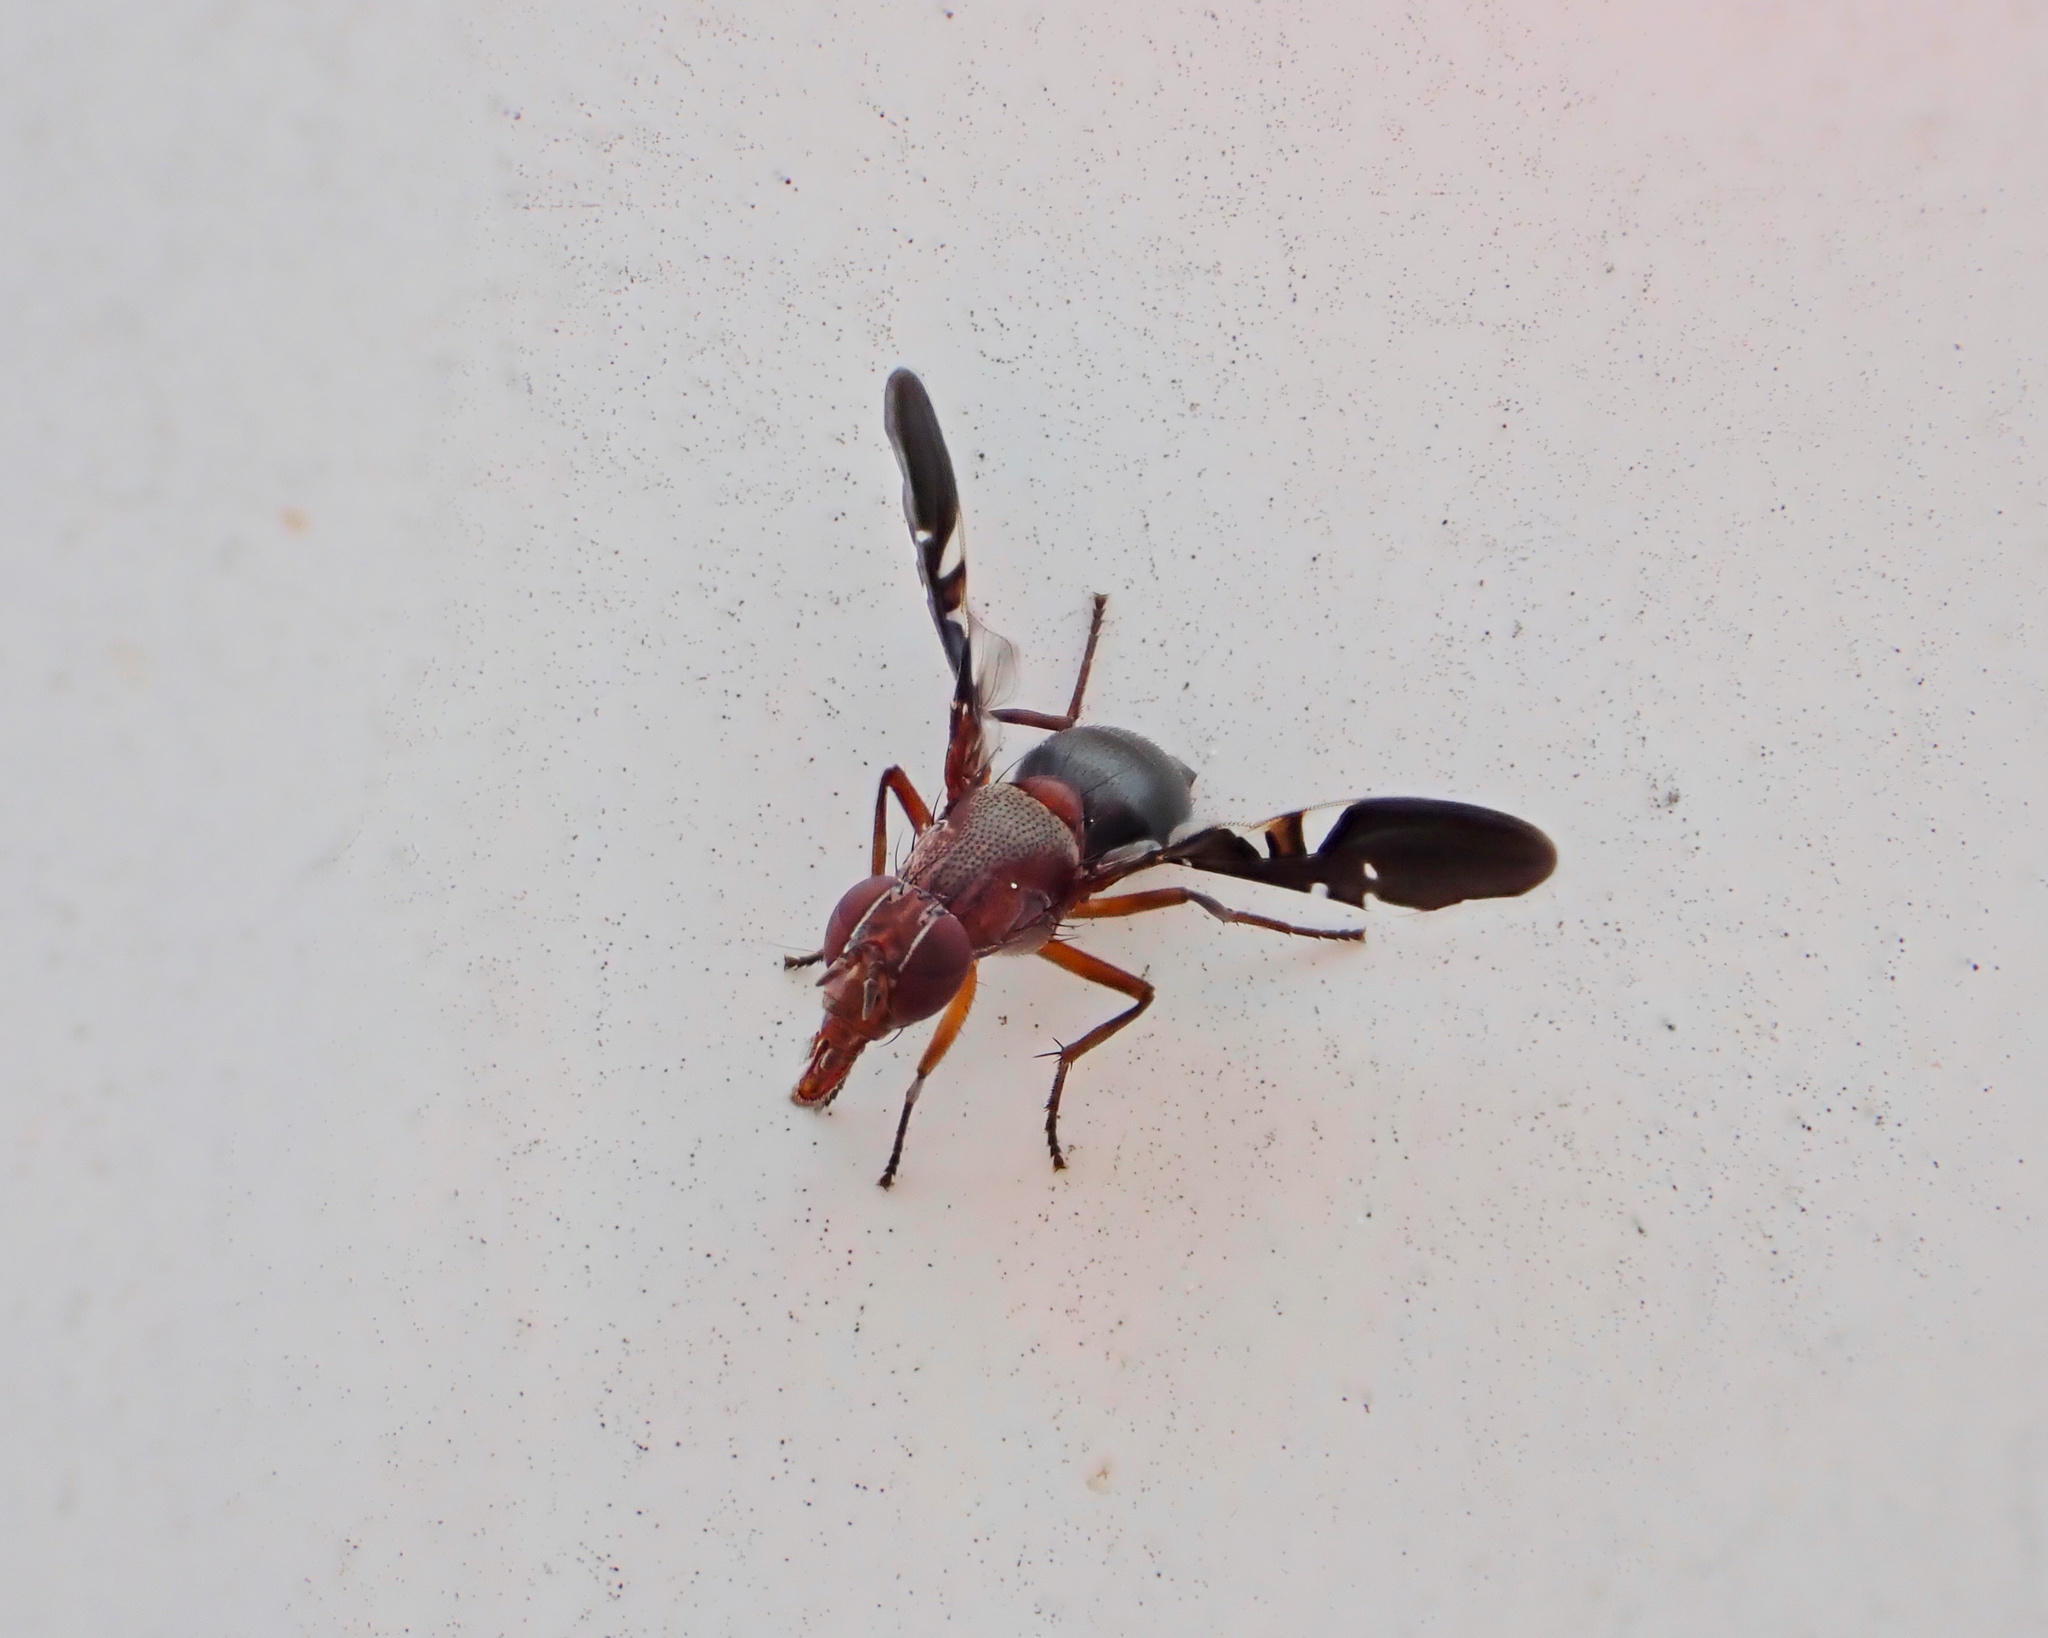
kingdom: Animalia
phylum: Arthropoda
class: Insecta
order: Diptera
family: Ulidiidae
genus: Delphinia
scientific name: Delphinia picta
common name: Common picture-winged fly
